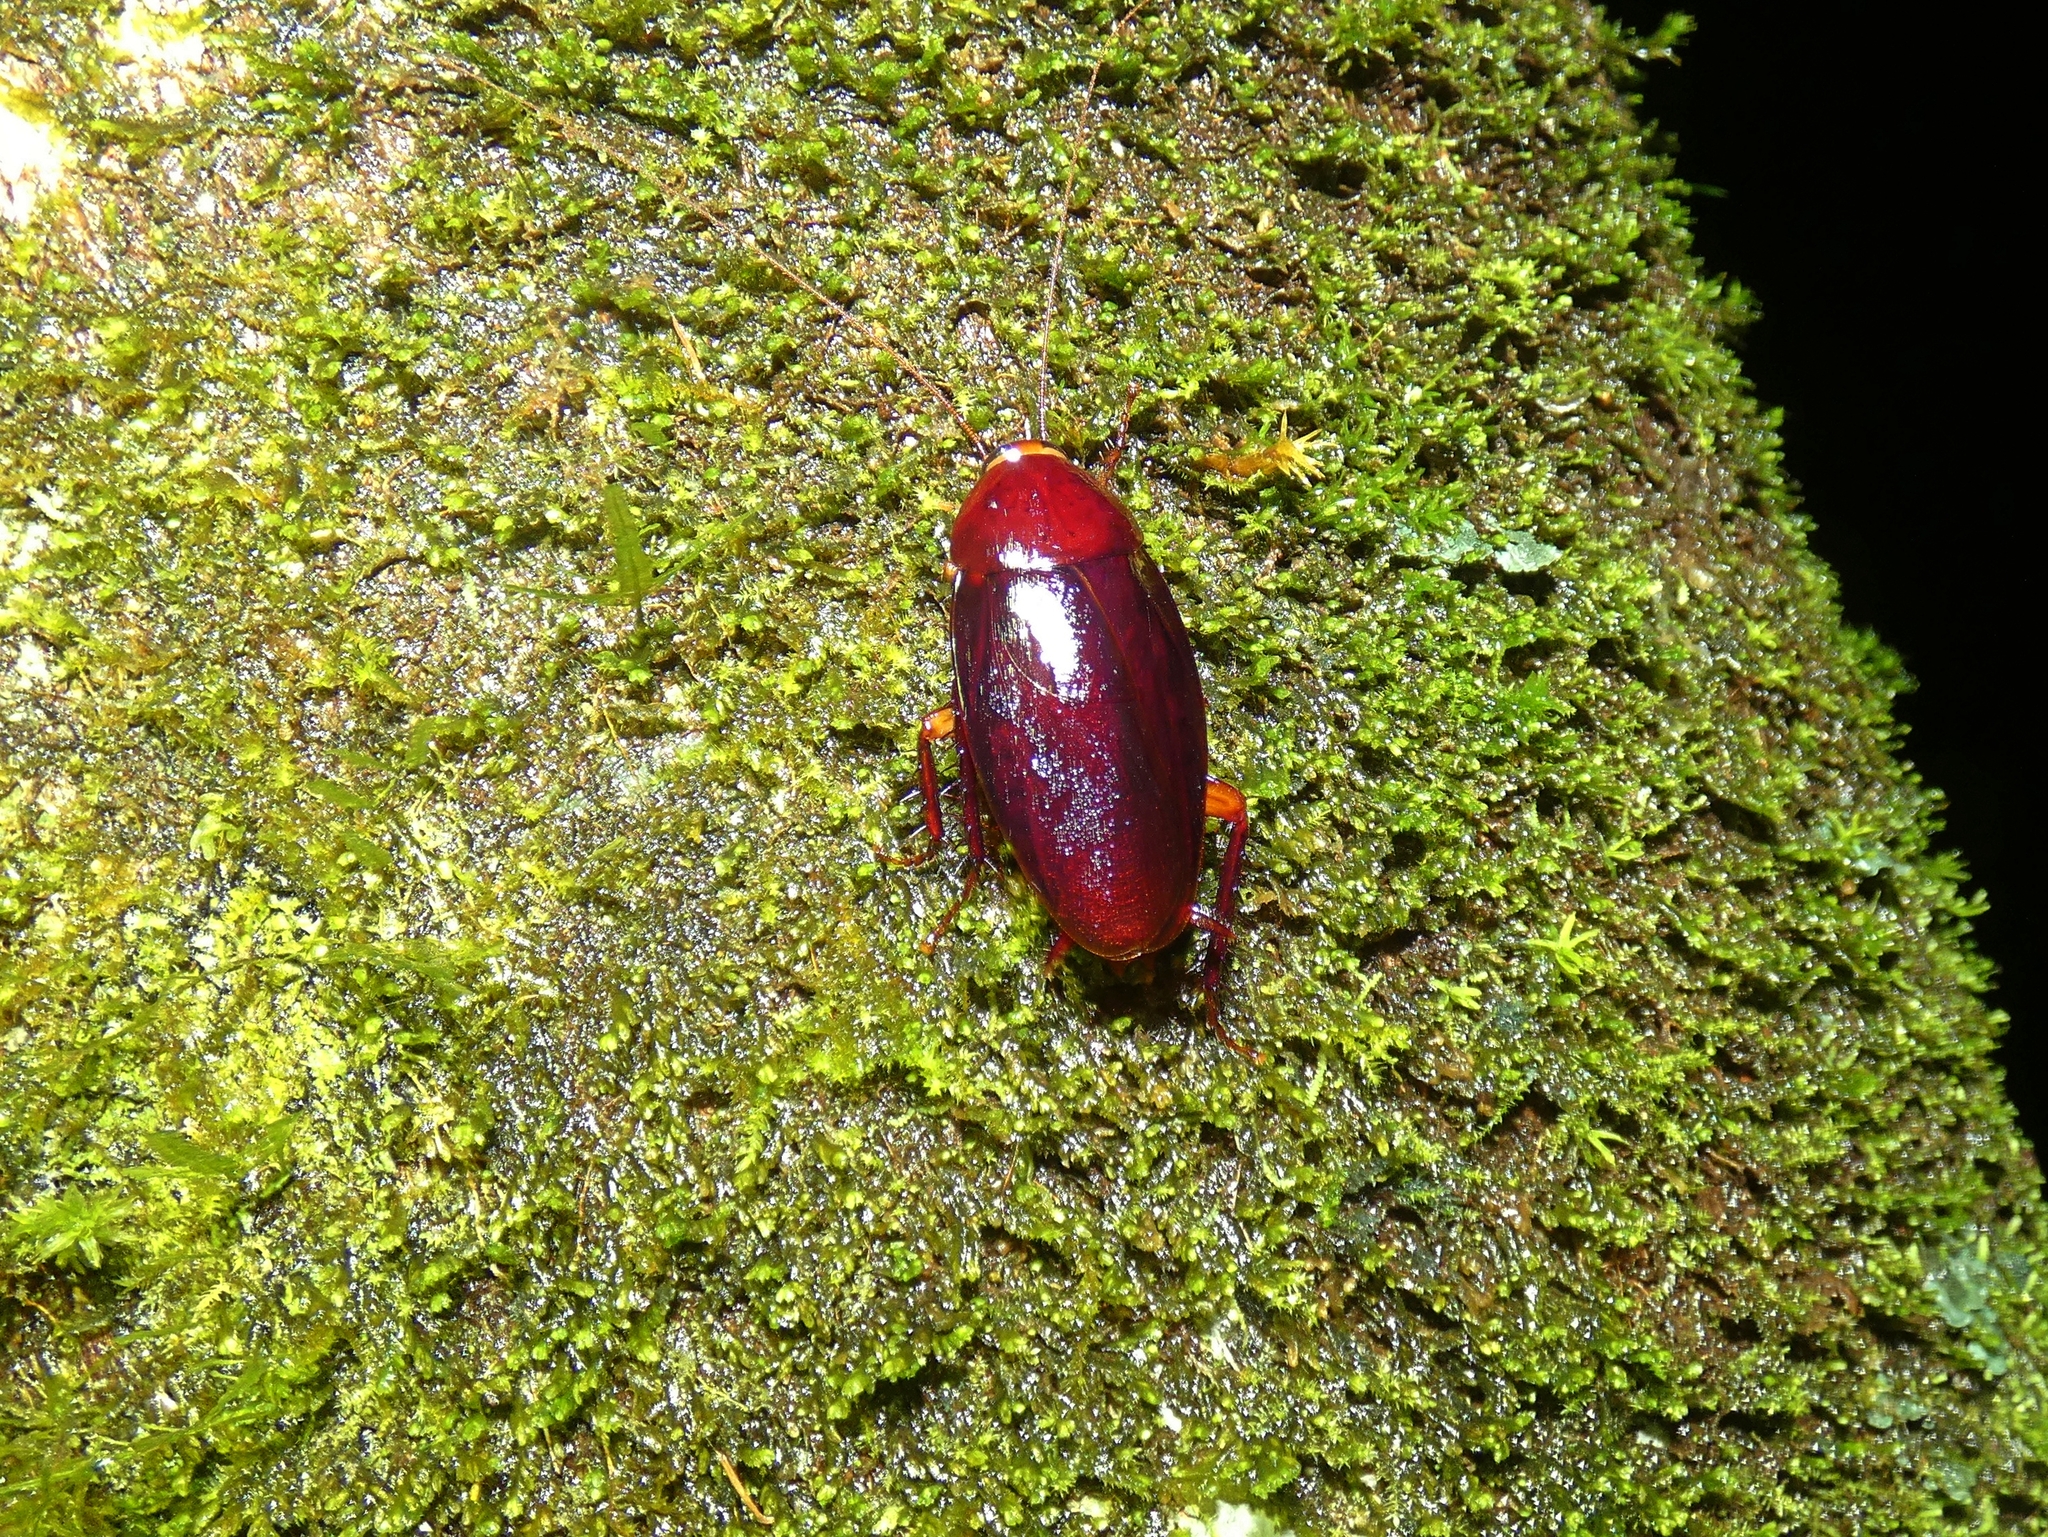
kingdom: Animalia
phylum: Arthropoda
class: Insecta
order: Blattodea
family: Blattidae
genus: Methana
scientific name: Methana convexa
